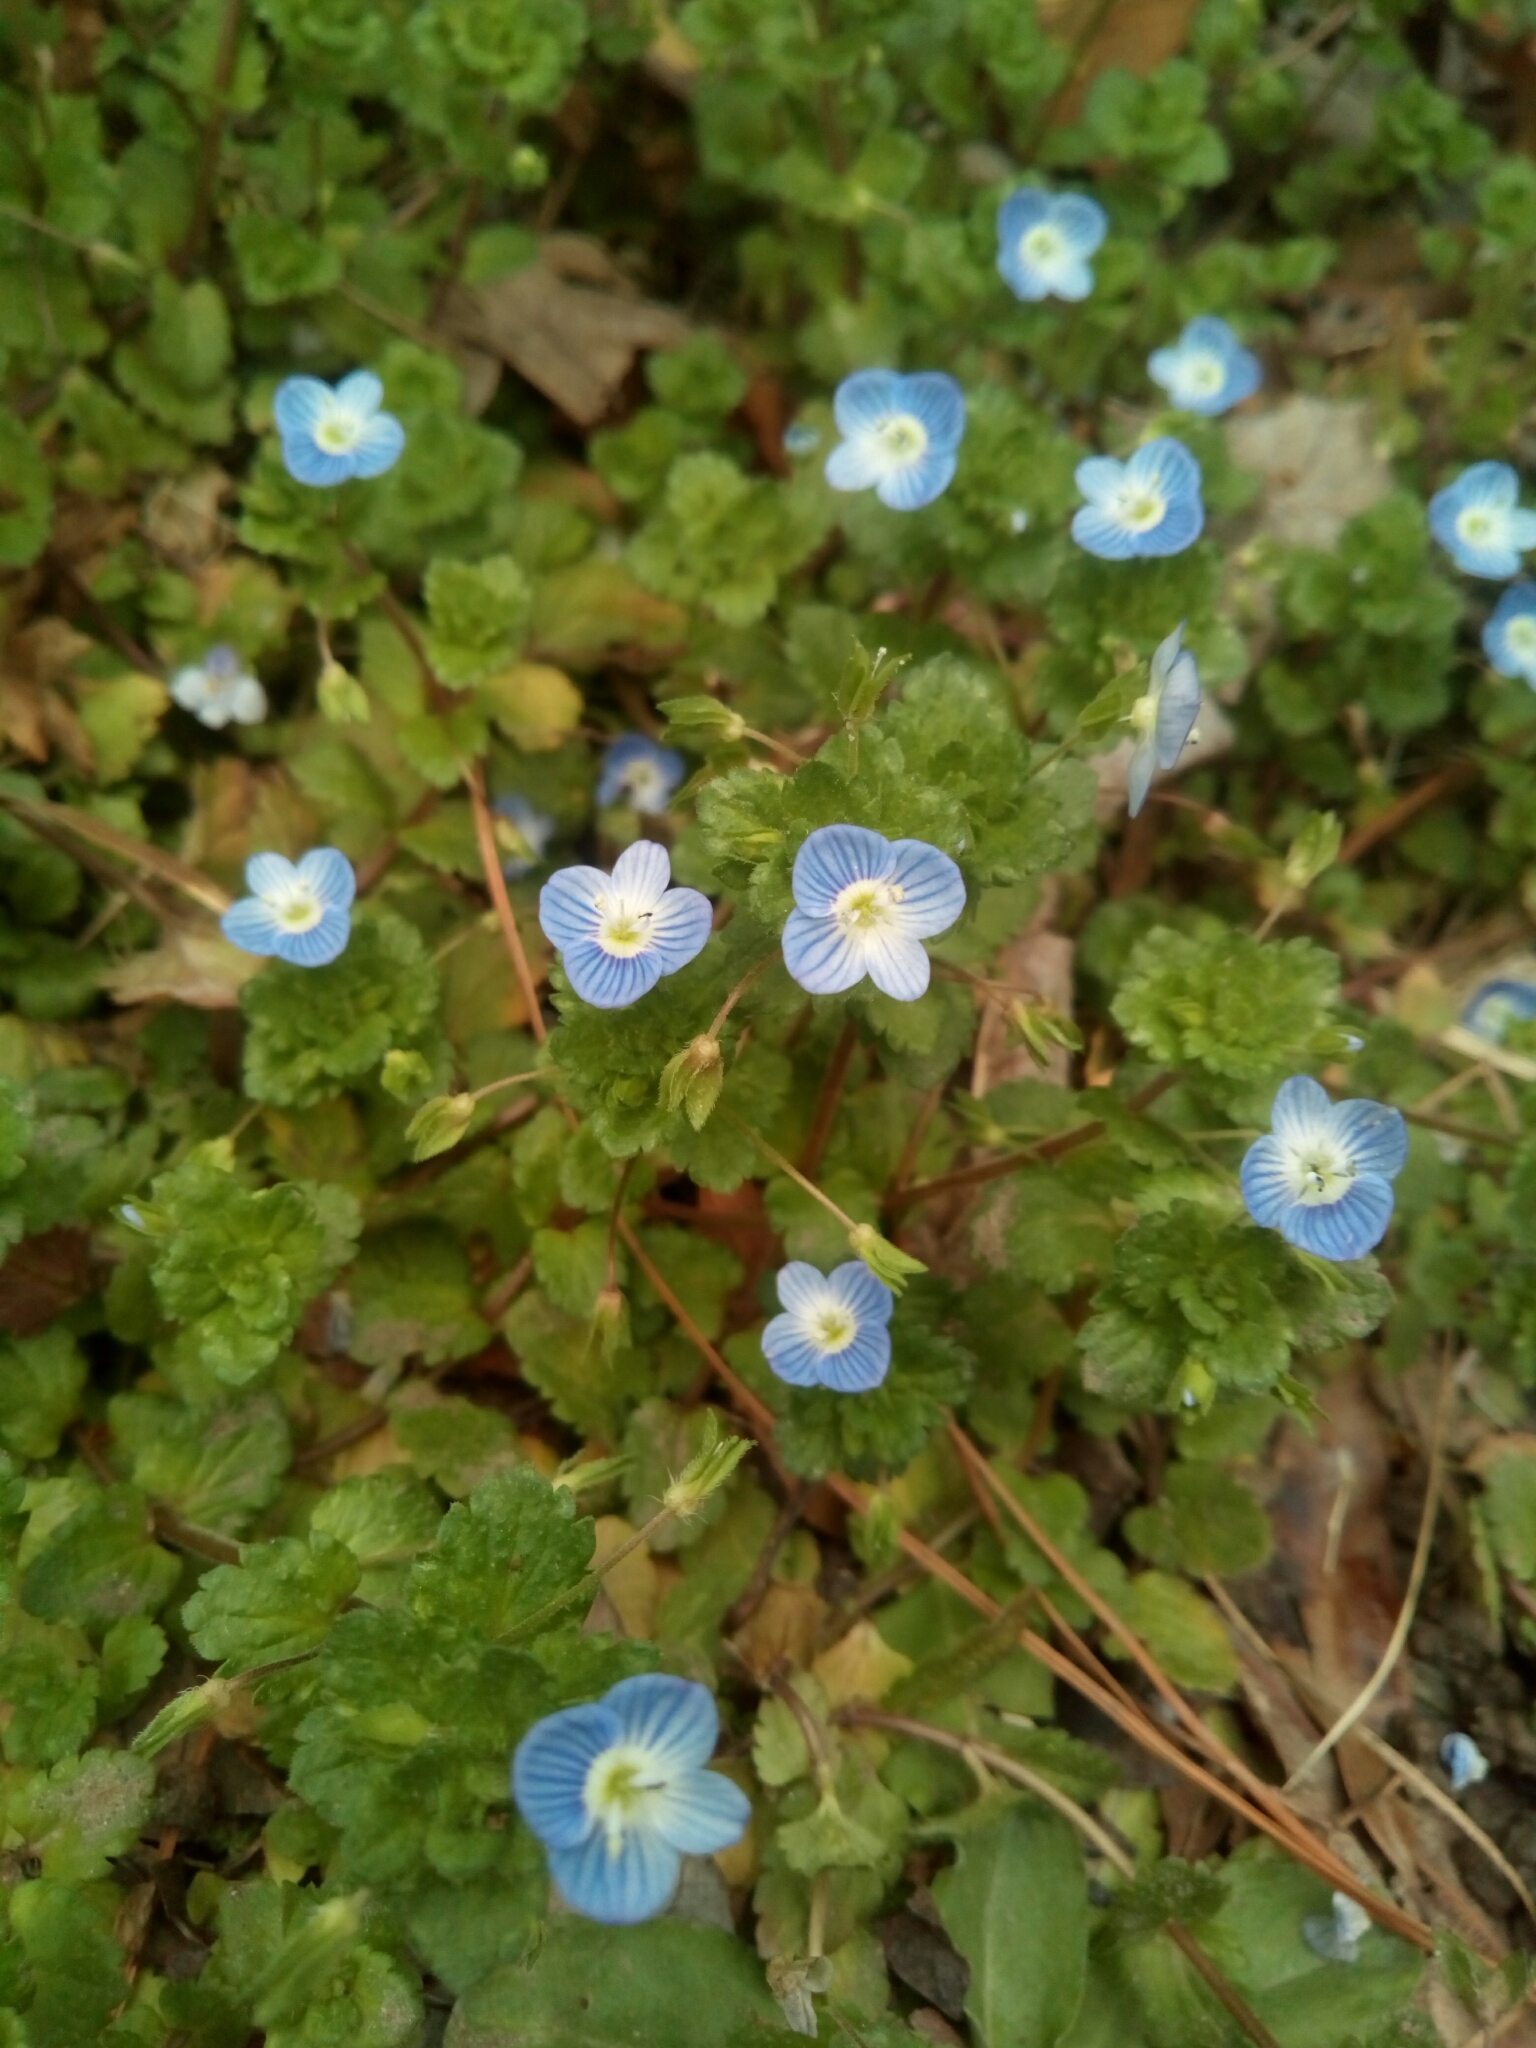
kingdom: Plantae
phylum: Tracheophyta
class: Magnoliopsida
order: Lamiales
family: Plantaginaceae
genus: Veronica
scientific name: Veronica persica
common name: Common field-speedwell
